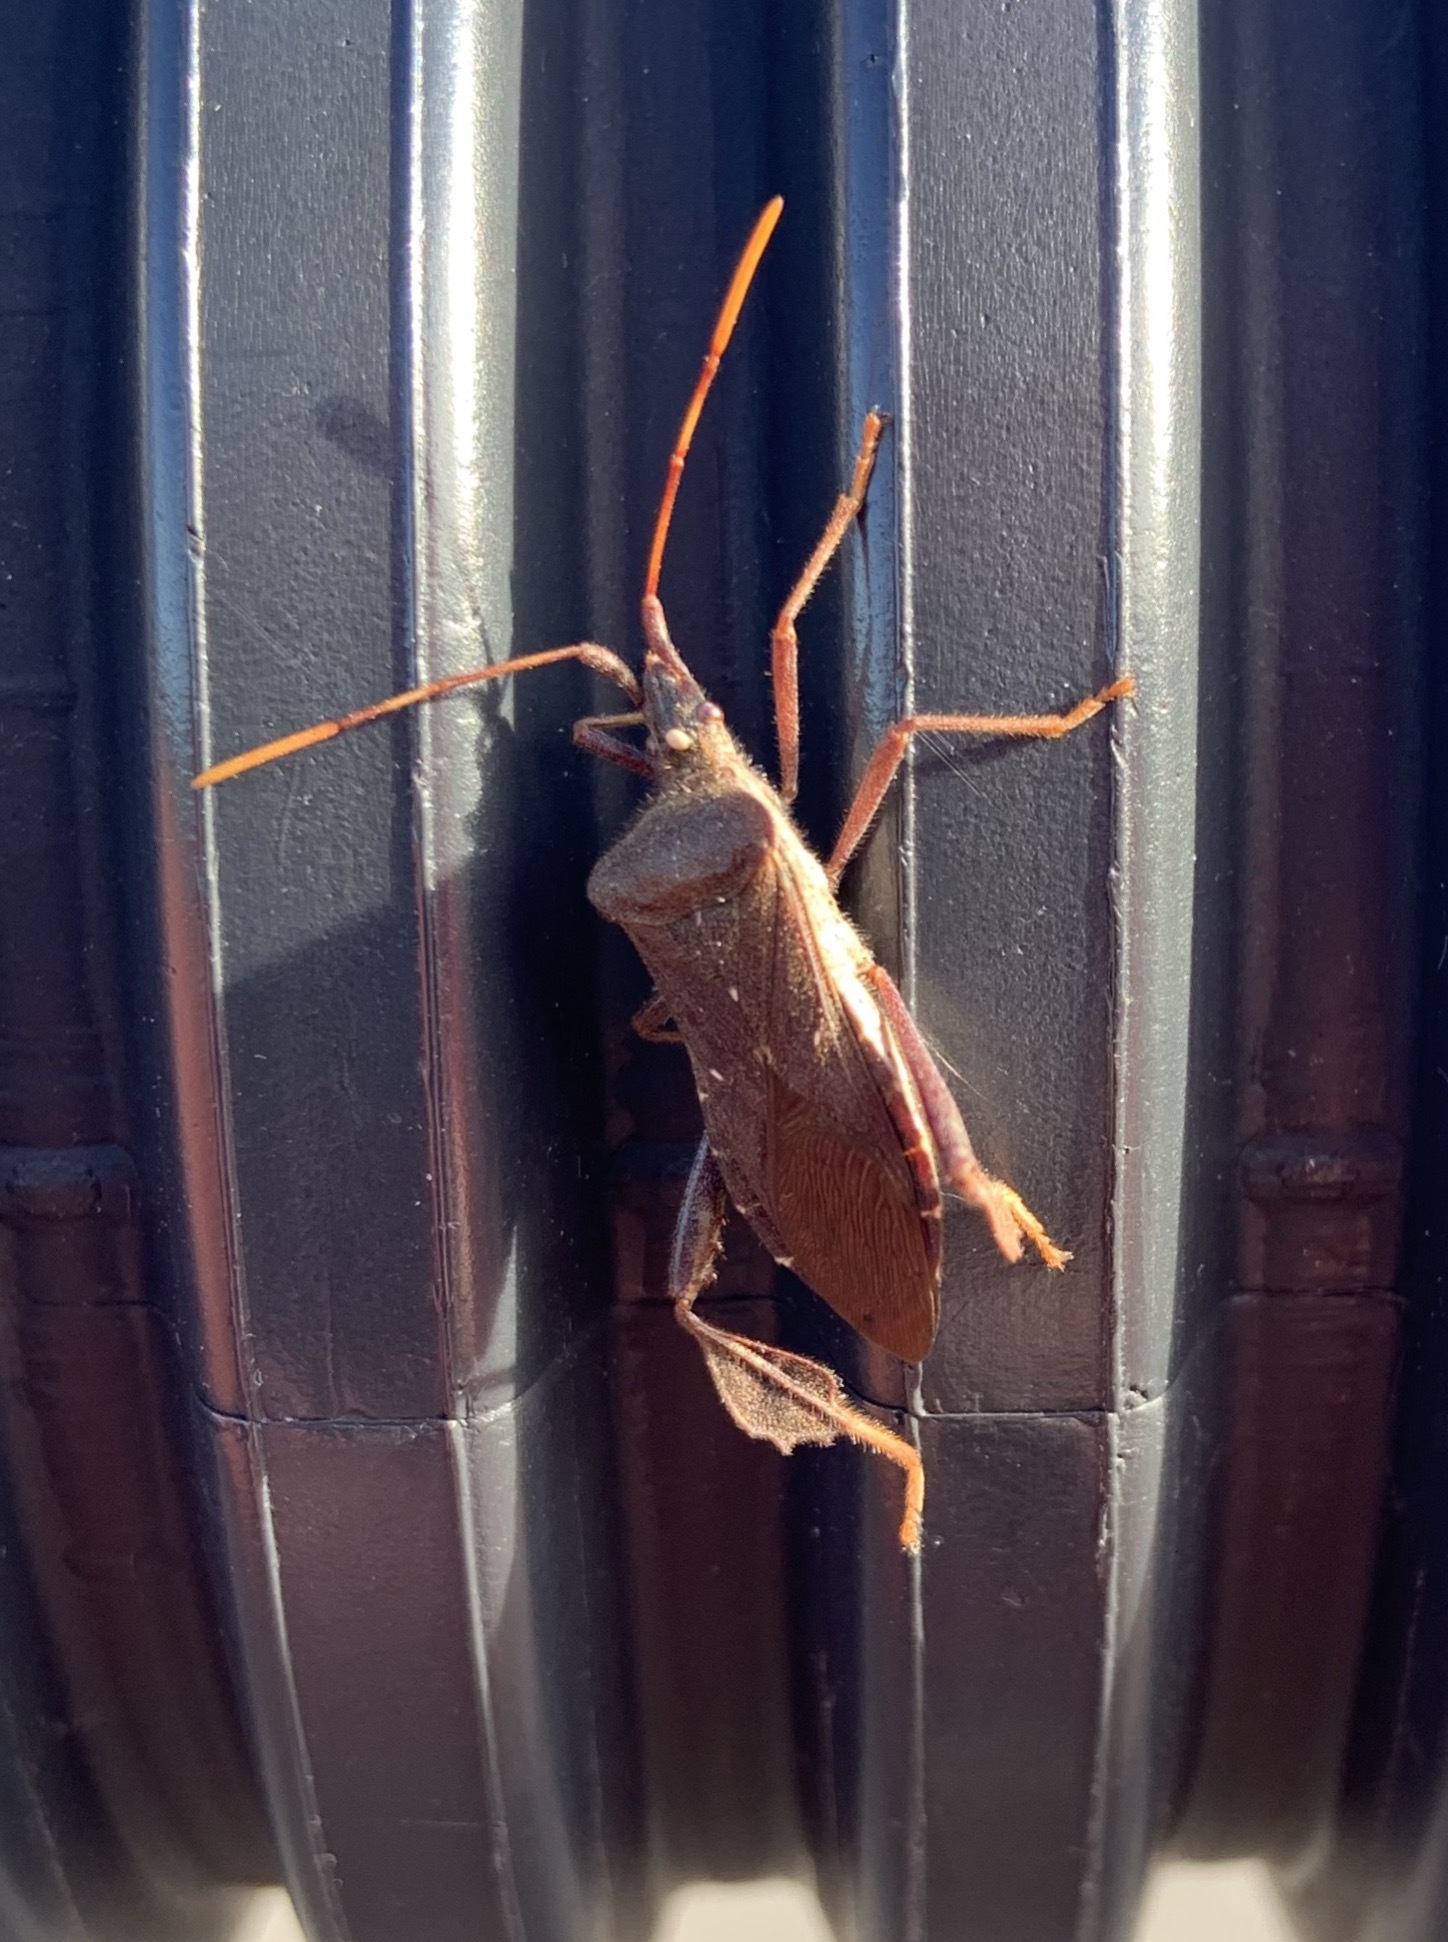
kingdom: Animalia
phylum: Arthropoda
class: Insecta
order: Hemiptera
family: Coreidae
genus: Leptoglossus
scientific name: Leptoglossus oppositus
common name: Northern leaf-footed bug
